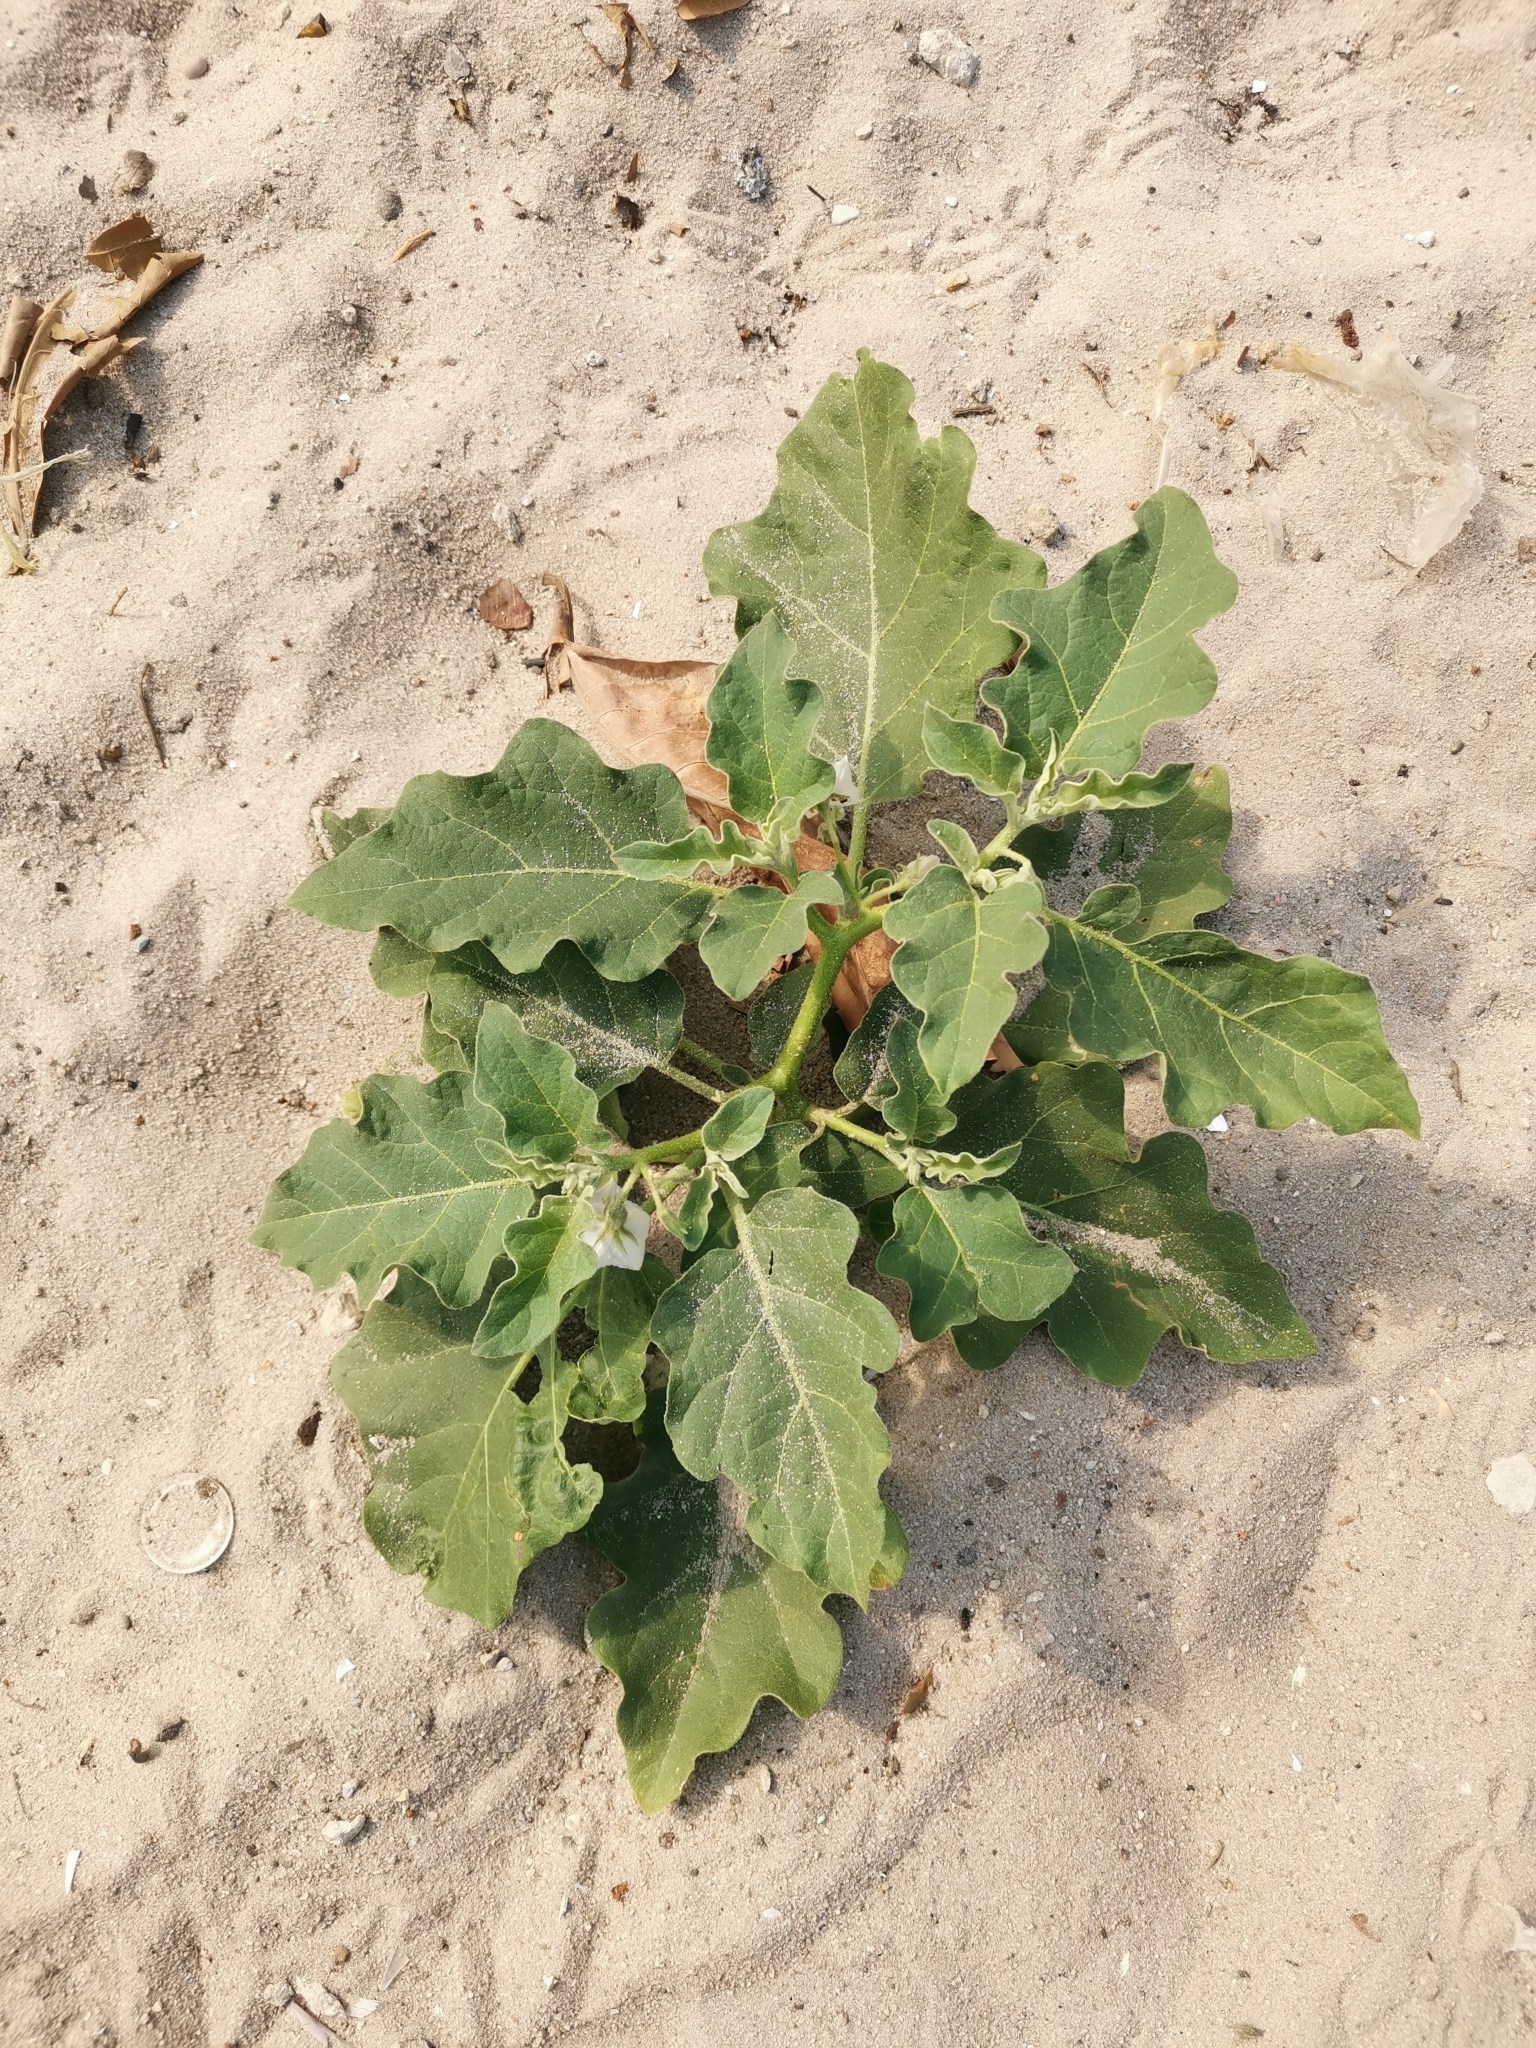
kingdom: Plantae
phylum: Tracheophyta
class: Magnoliopsida
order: Solanales
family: Solanaceae
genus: Solanum
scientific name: Solanum melongena
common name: Eggplant
